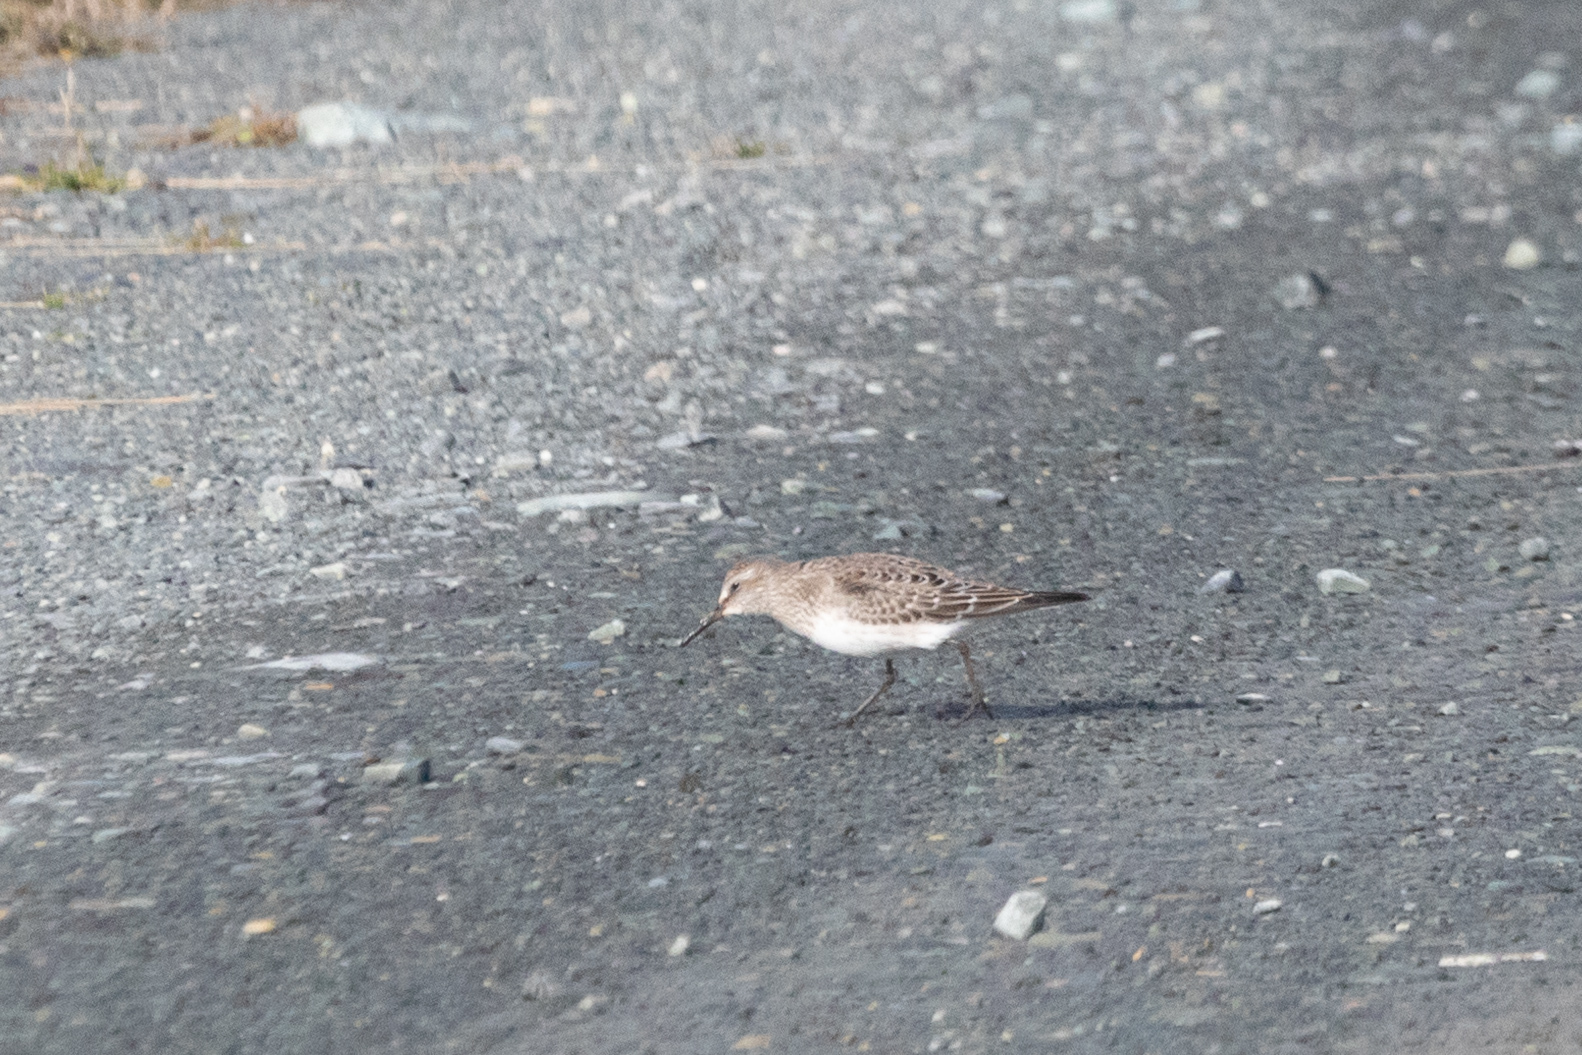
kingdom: Animalia
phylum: Chordata
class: Aves
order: Charadriiformes
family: Scolopacidae
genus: Calidris
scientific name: Calidris fuscicollis
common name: White-rumped sandpiper
